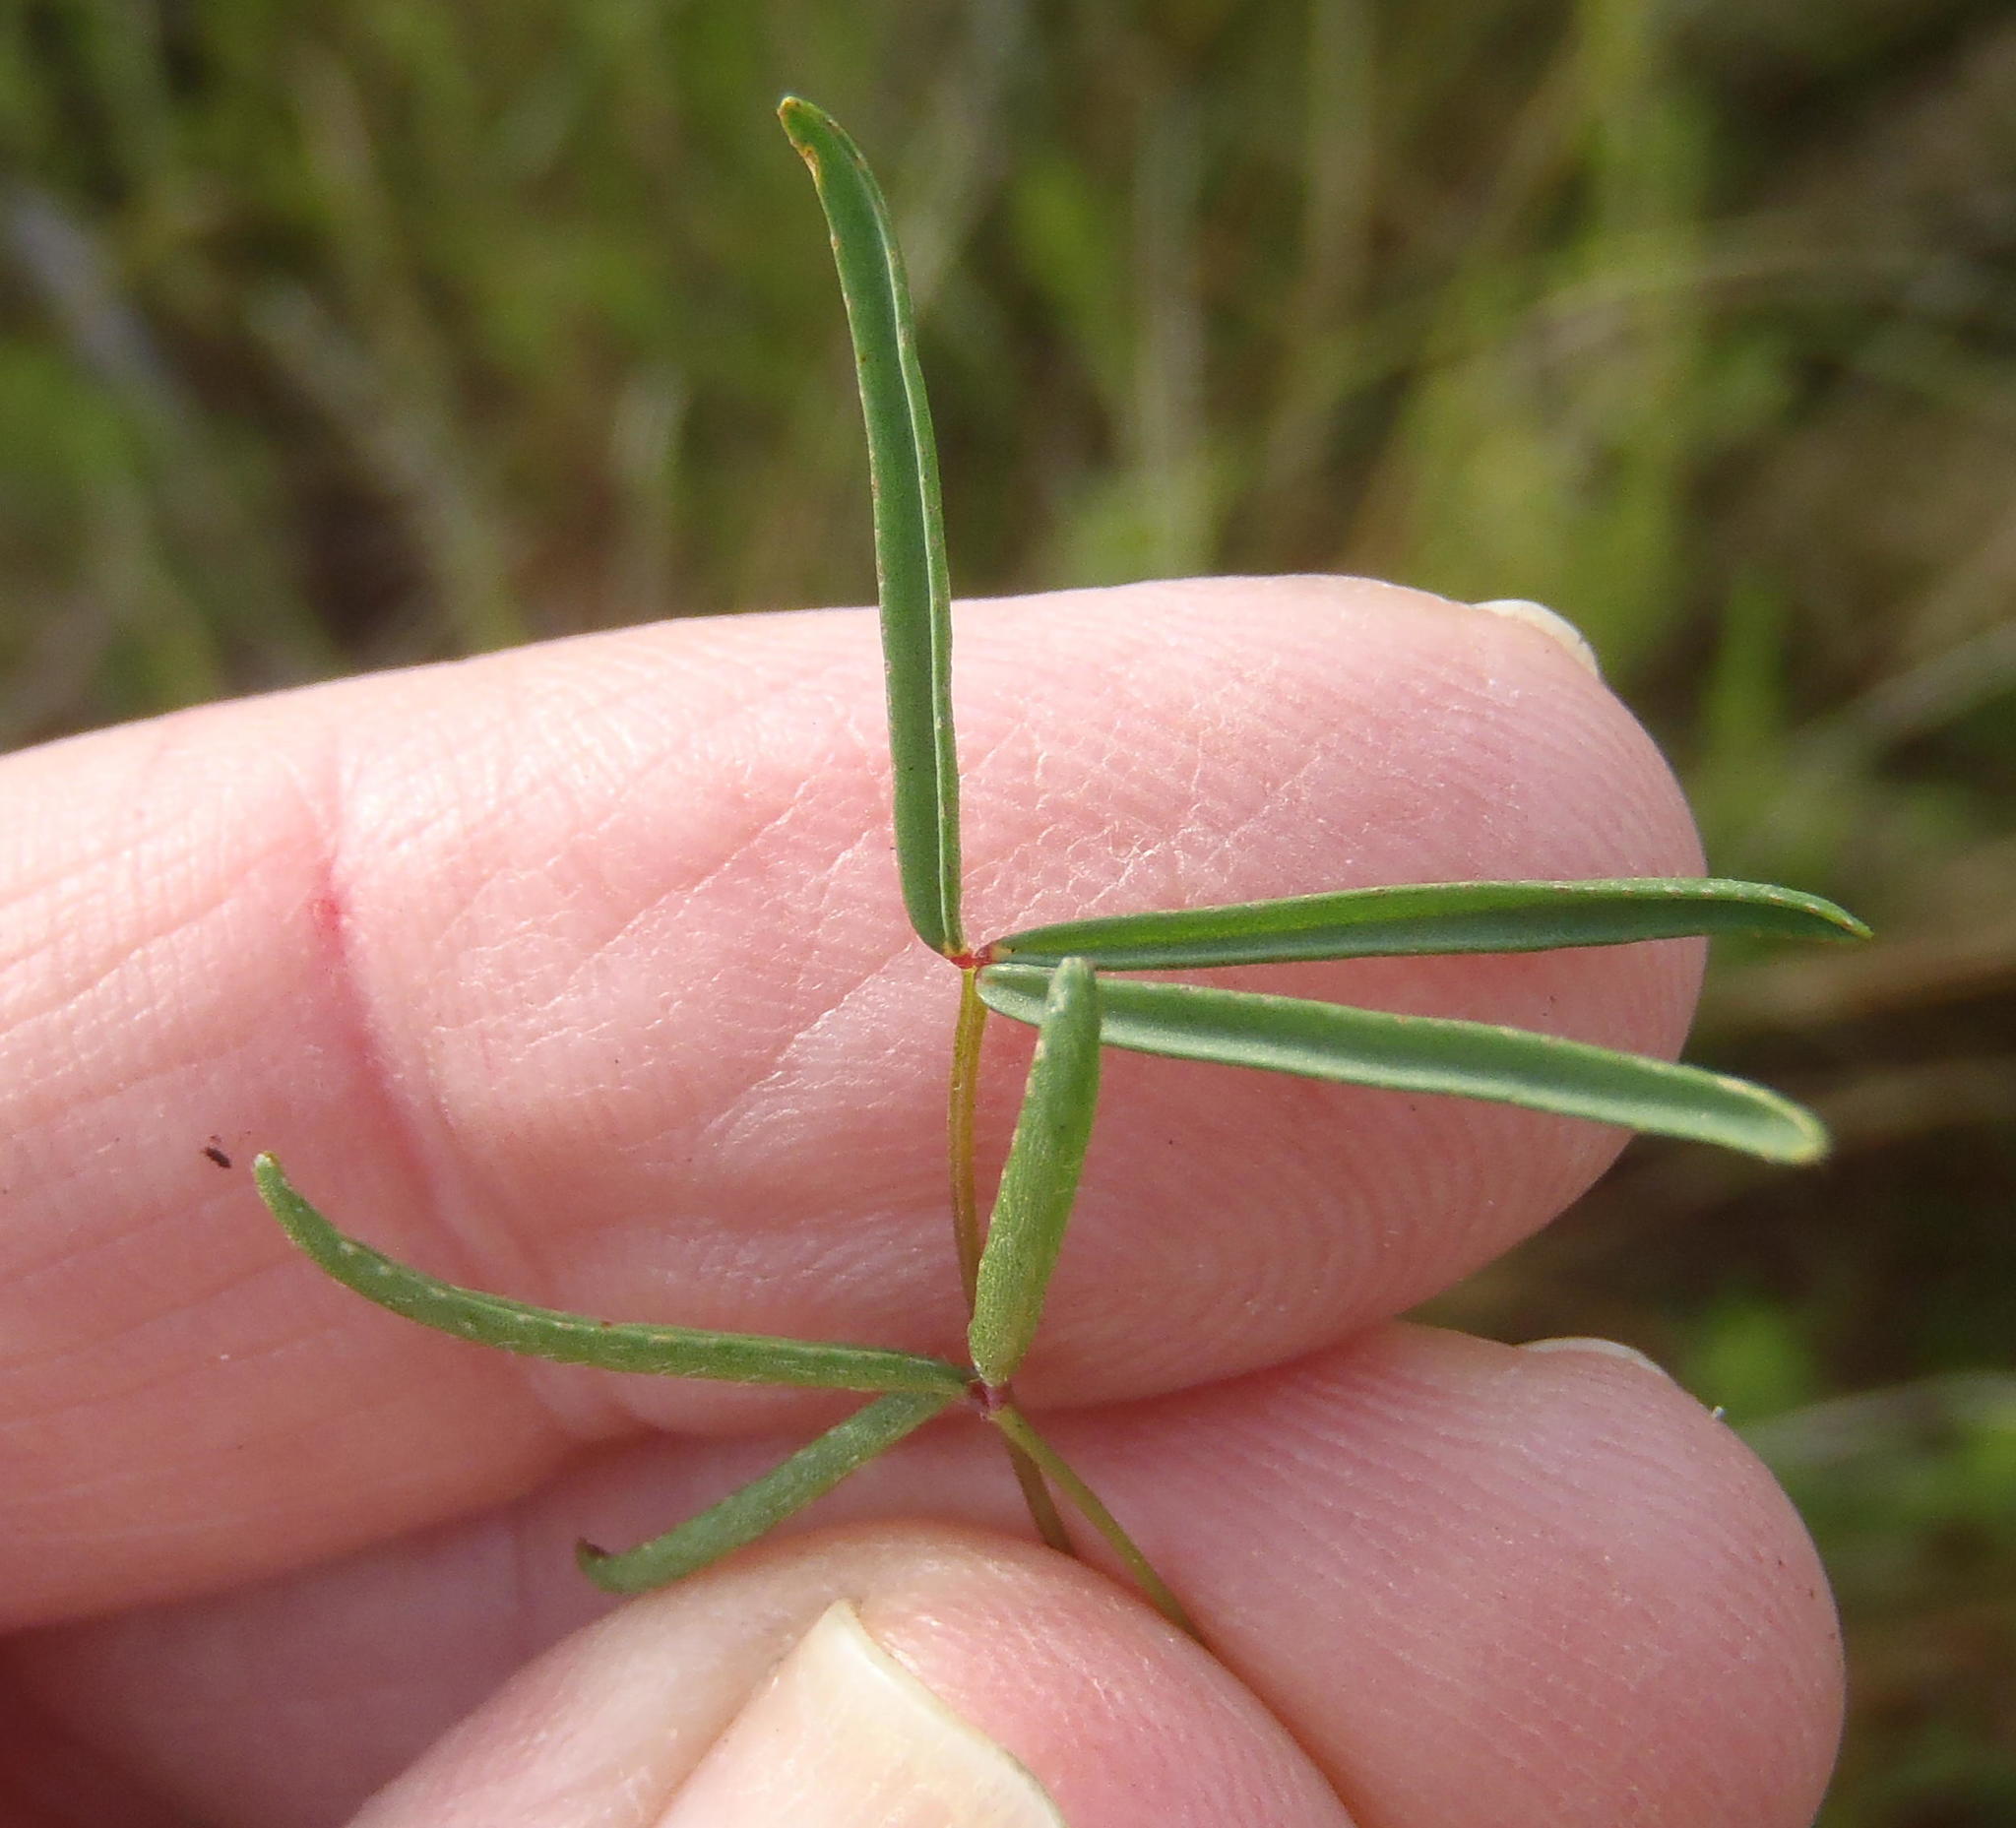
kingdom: Plantae
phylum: Tracheophyta
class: Magnoliopsida
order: Oxalidales
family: Oxalidaceae
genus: Oxalis
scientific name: Oxalis pendulifolia
